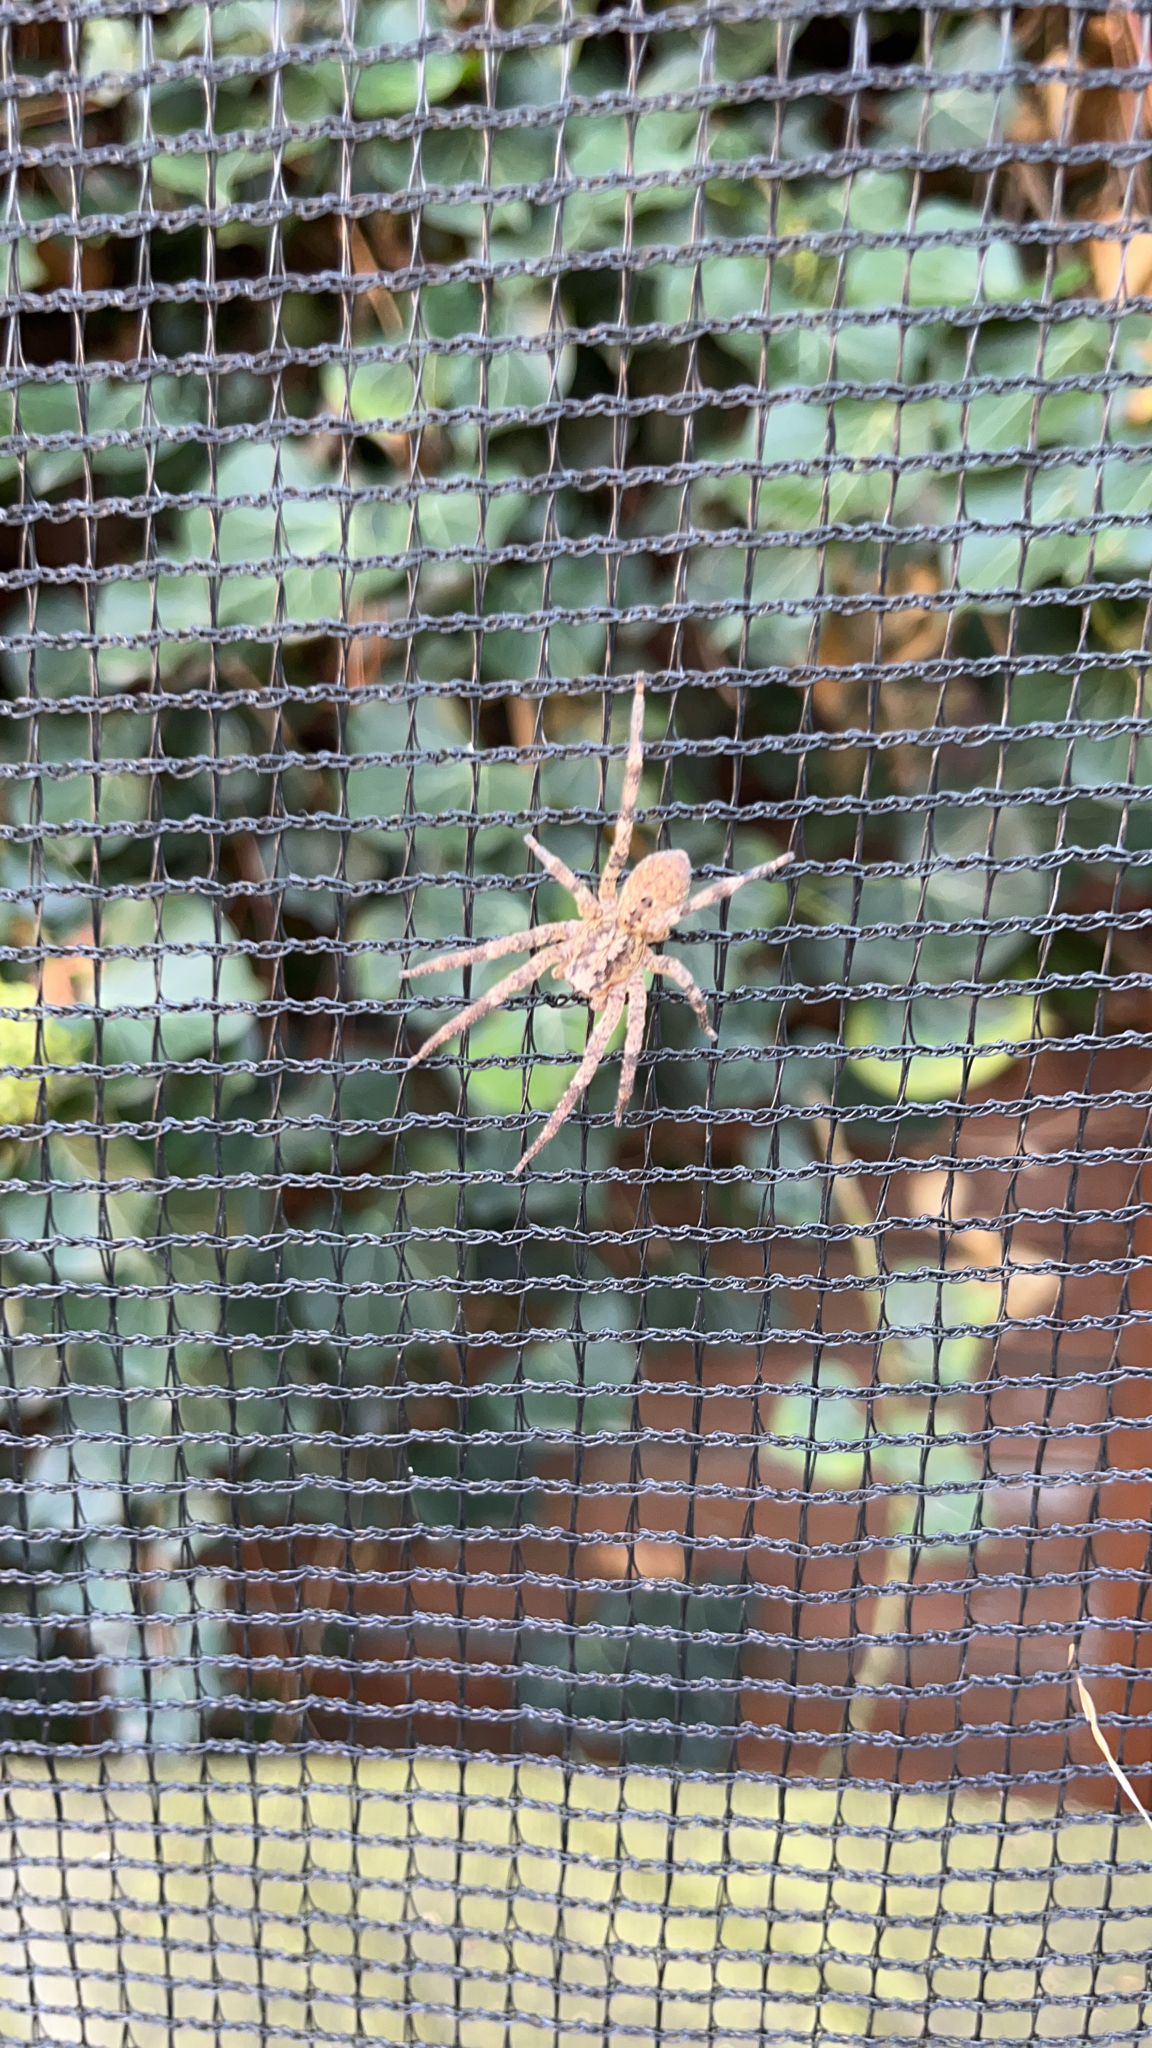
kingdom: Animalia
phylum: Arthropoda
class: Arachnida
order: Araneae
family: Zoropsidae
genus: Zoropsis
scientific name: Zoropsis spinimana
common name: Zoropsid spider
